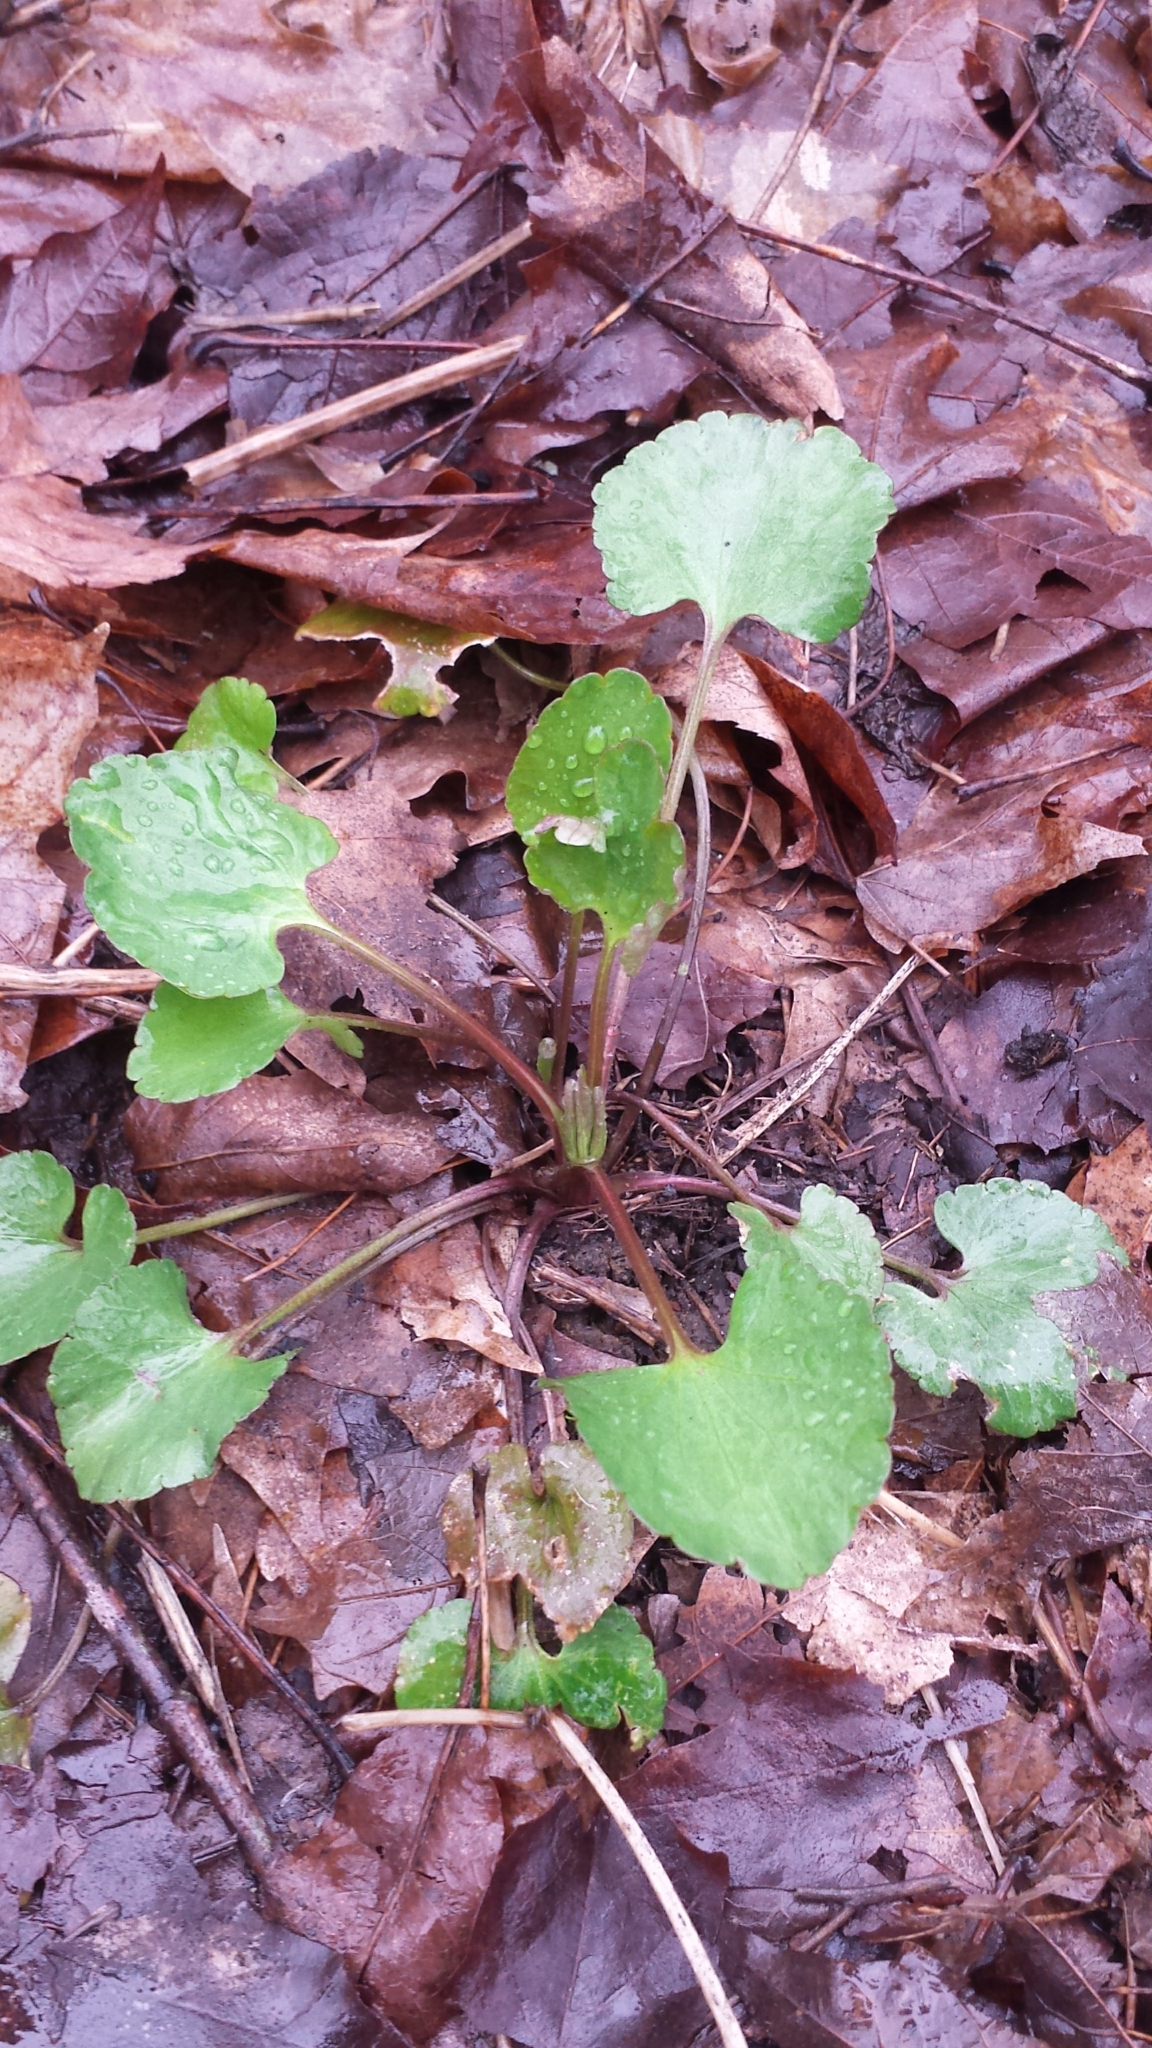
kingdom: Plantae
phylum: Tracheophyta
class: Magnoliopsida
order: Ranunculales
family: Ranunculaceae
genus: Ranunculus
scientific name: Ranunculus abortivus
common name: Early wood buttercup
